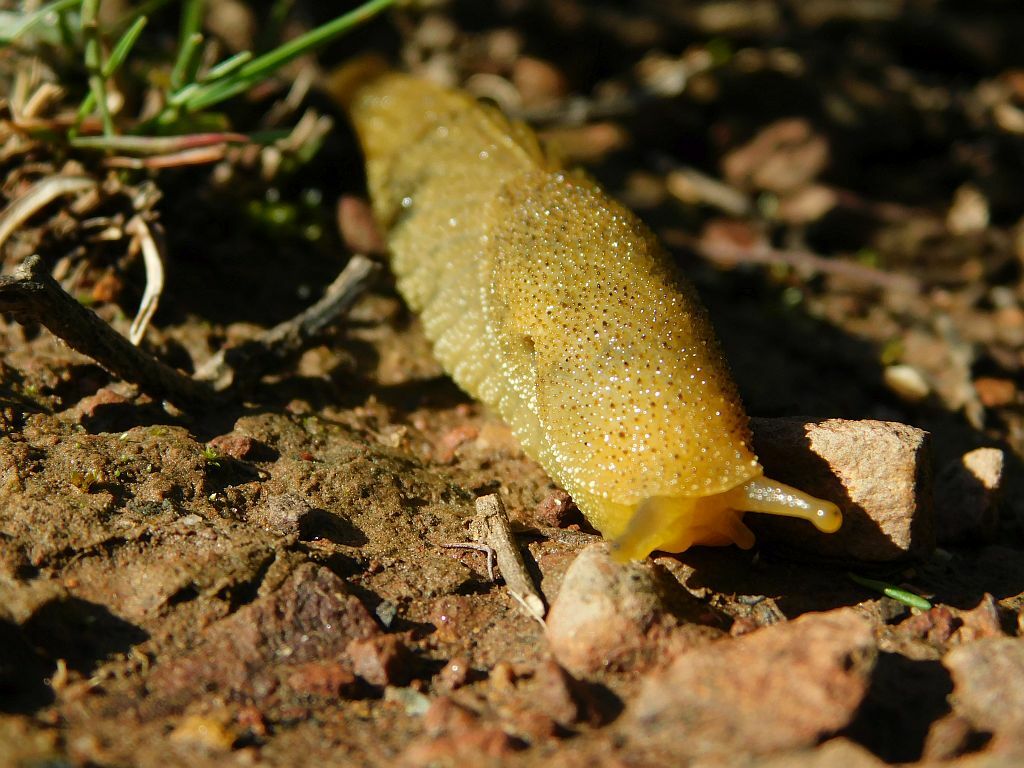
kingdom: Animalia
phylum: Mollusca
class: Gastropoda
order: Stylommatophora
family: Oopeltidae
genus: Oopelta
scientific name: Oopelta flavescens
